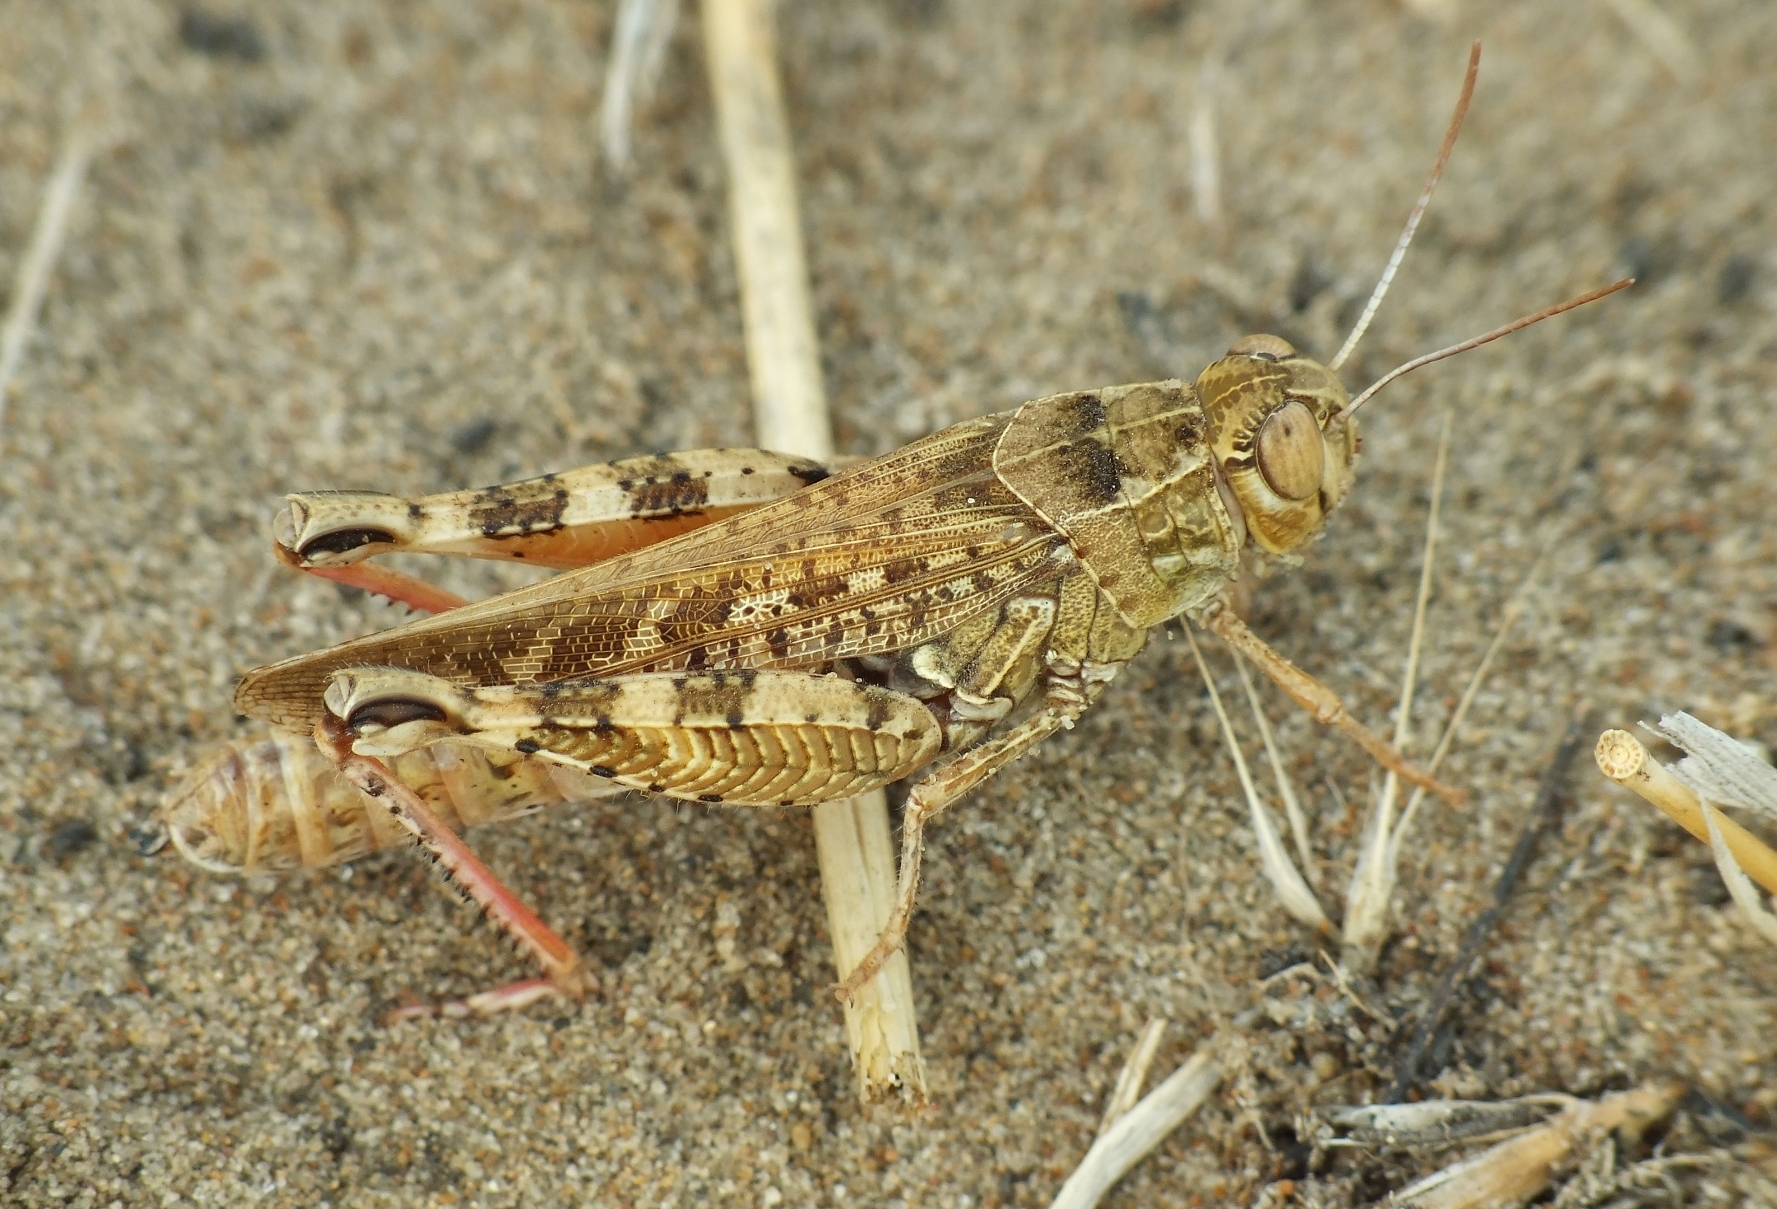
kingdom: Animalia
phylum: Arthropoda
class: Insecta
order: Orthoptera
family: Acrididae
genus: Calliptamus
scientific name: Calliptamus italicus
